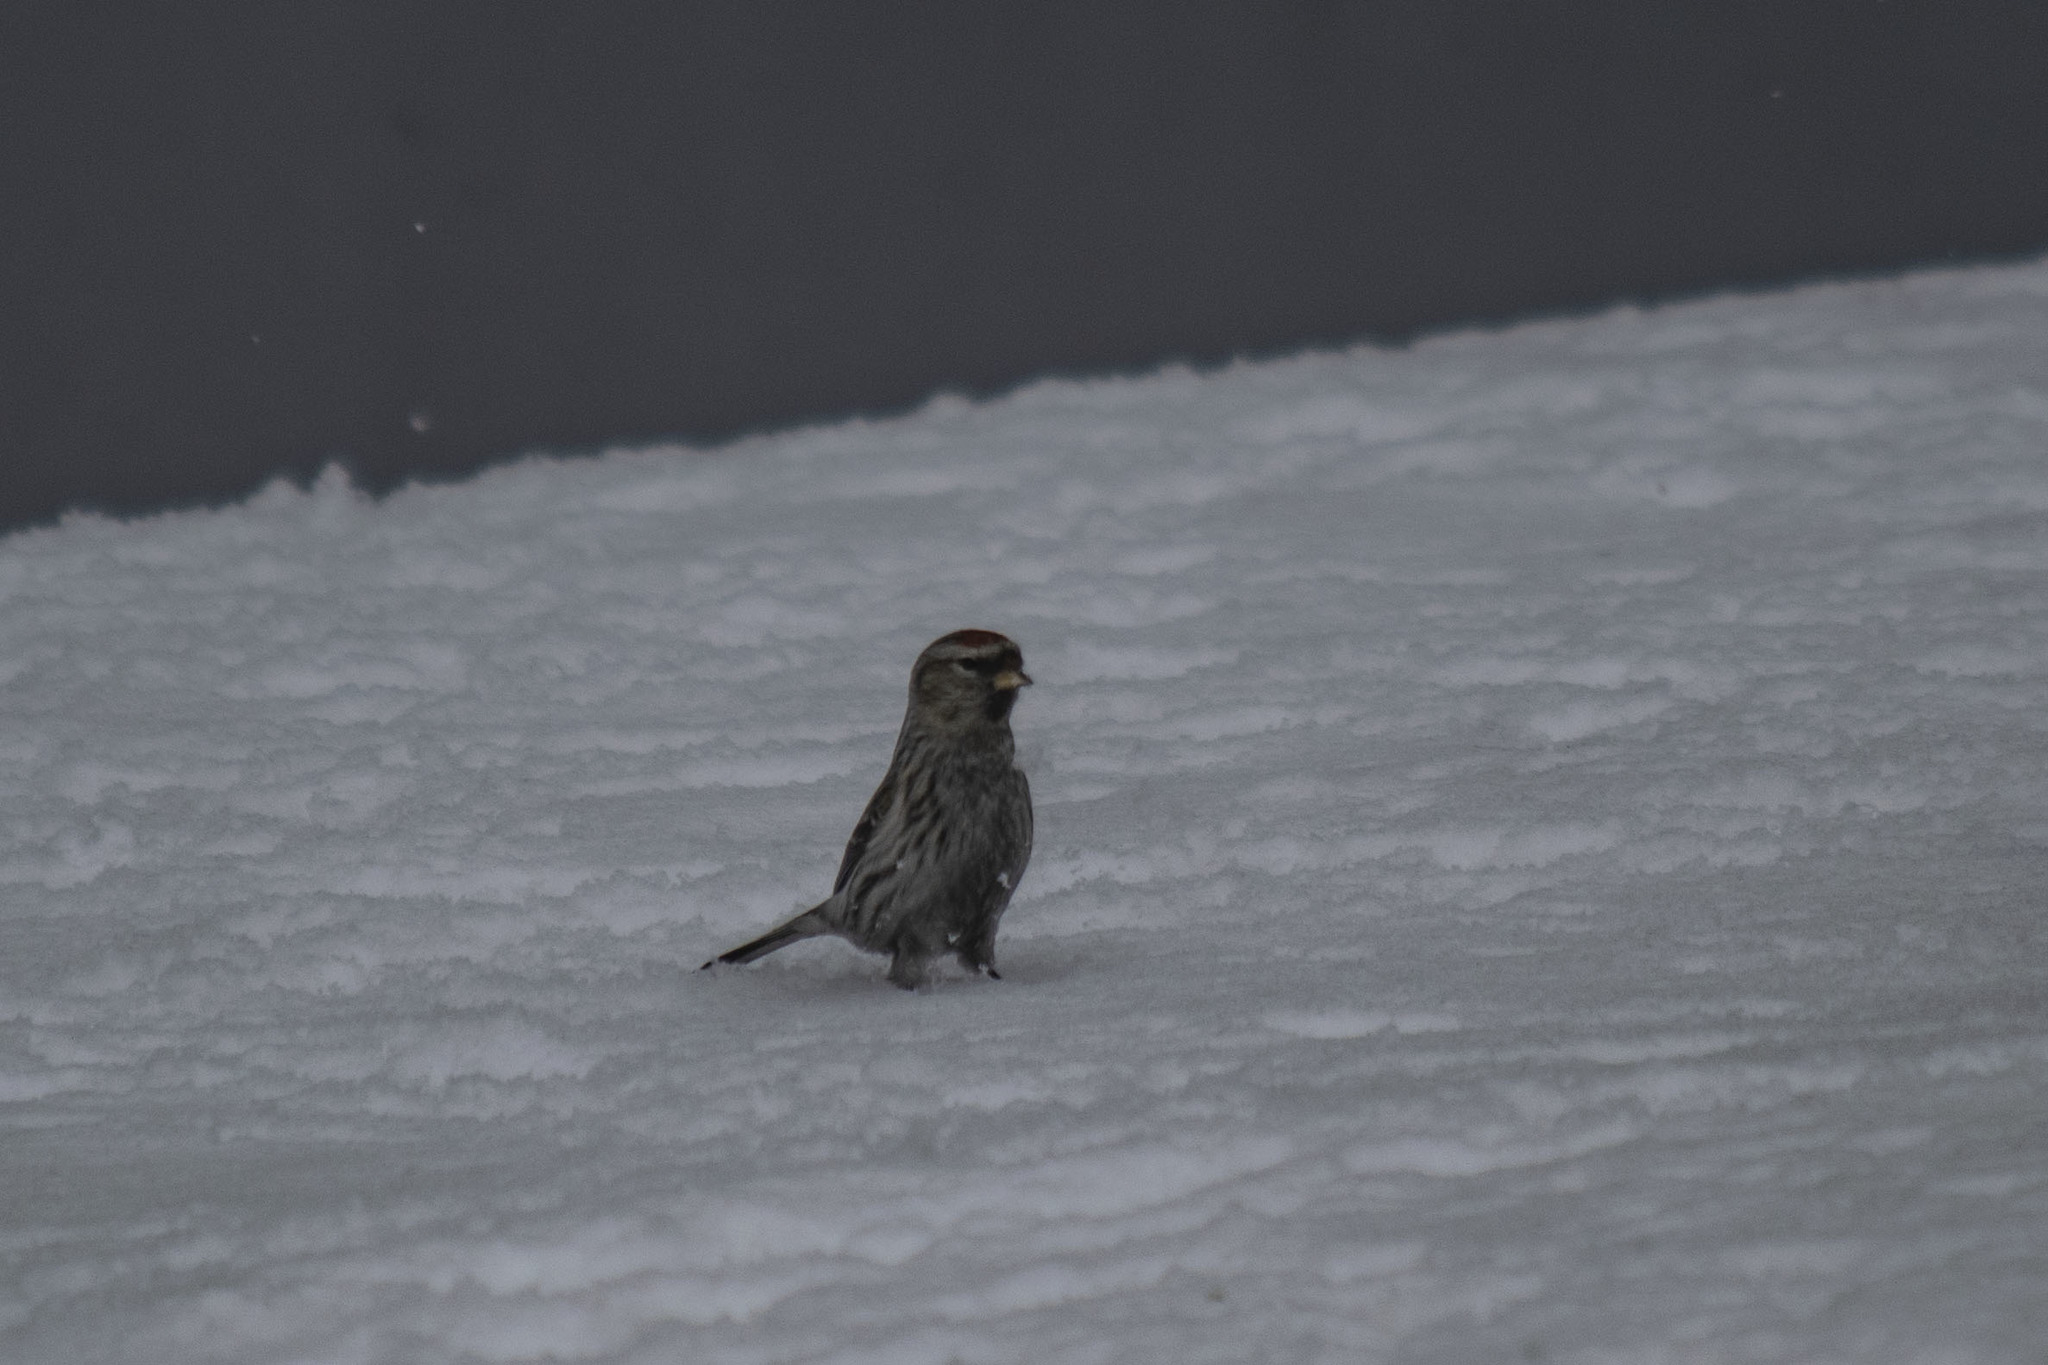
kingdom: Animalia
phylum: Chordata
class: Aves
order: Passeriformes
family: Fringillidae
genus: Acanthis
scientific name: Acanthis flammea
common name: Common redpoll
